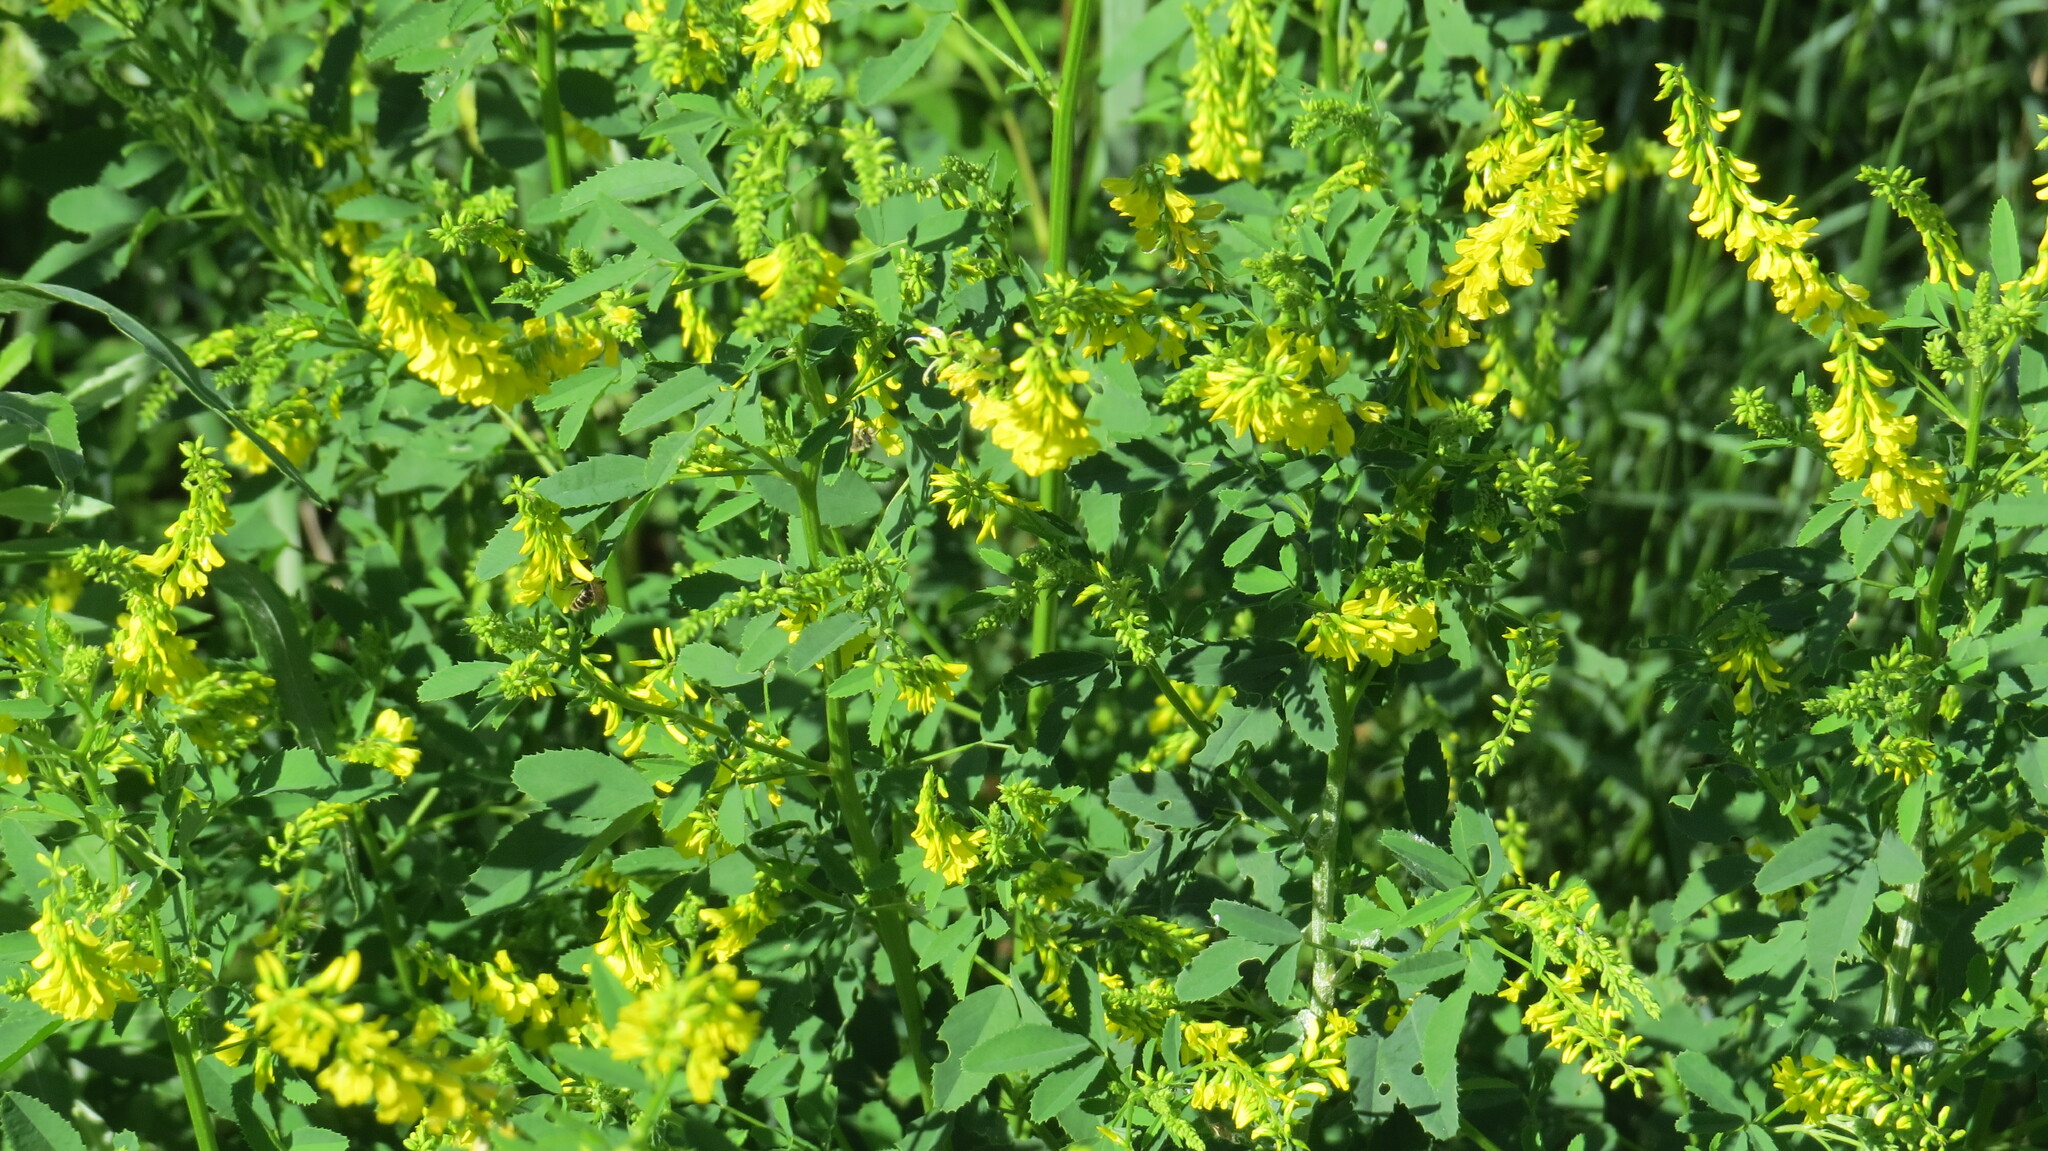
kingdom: Plantae
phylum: Tracheophyta
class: Magnoliopsida
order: Fabales
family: Fabaceae
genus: Melilotus
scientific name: Melilotus officinalis
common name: Sweetclover
